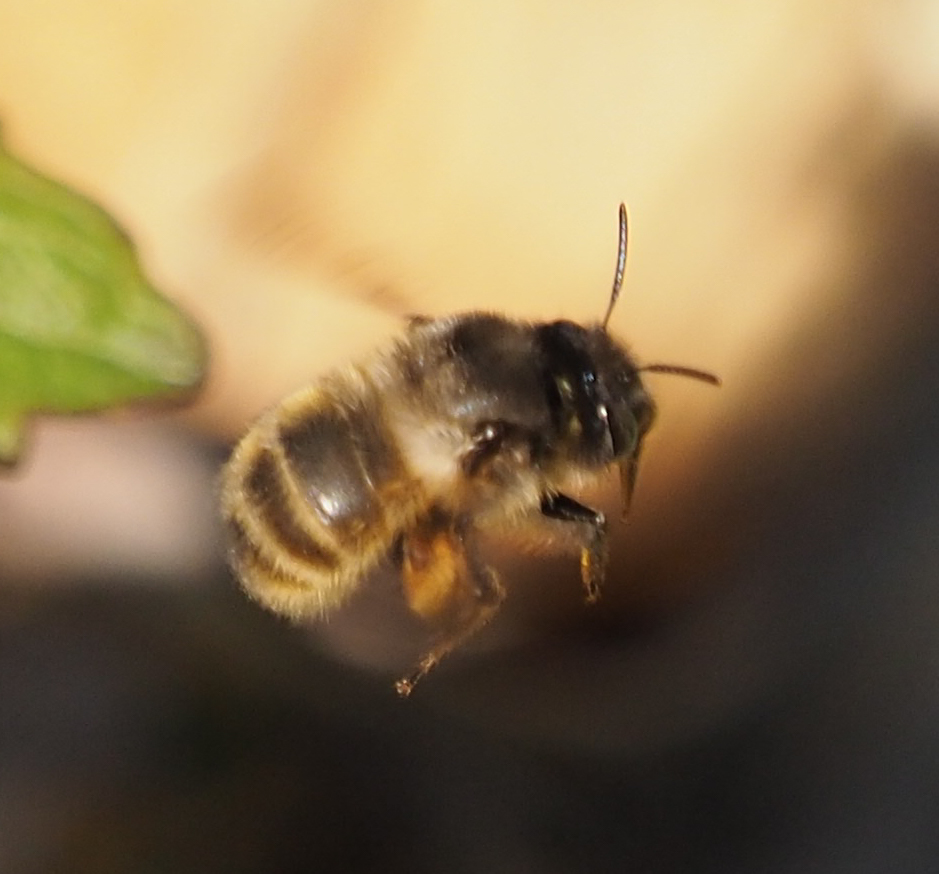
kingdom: Animalia
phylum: Arthropoda
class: Insecta
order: Hymenoptera
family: Apidae
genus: Anthophora
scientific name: Anthophora villosula
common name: Asian shaggy digger
